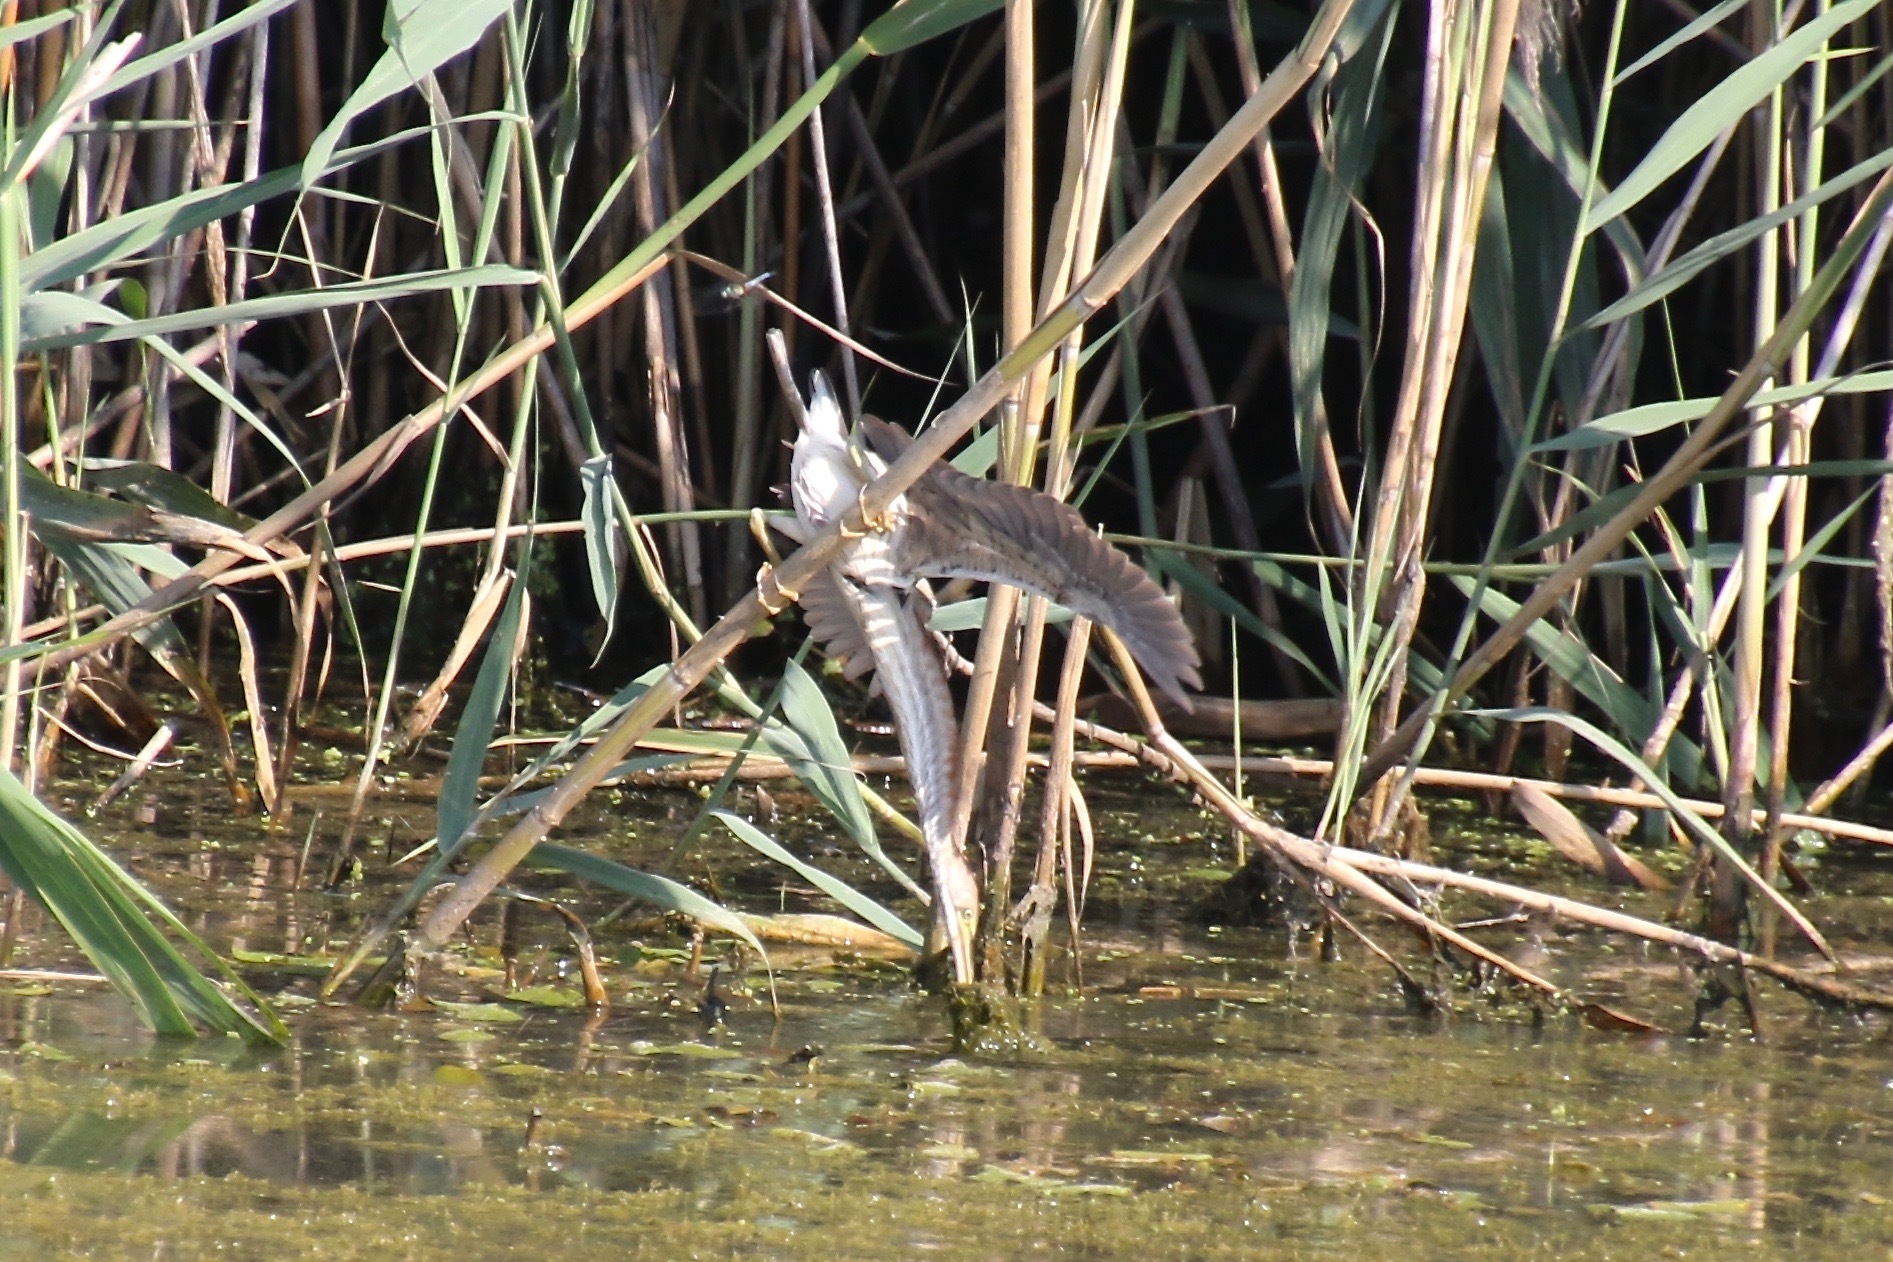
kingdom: Animalia
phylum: Chordata
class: Aves
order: Pelecaniformes
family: Ardeidae
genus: Ixobrychus
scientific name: Ixobrychus exilis
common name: Least bittern
